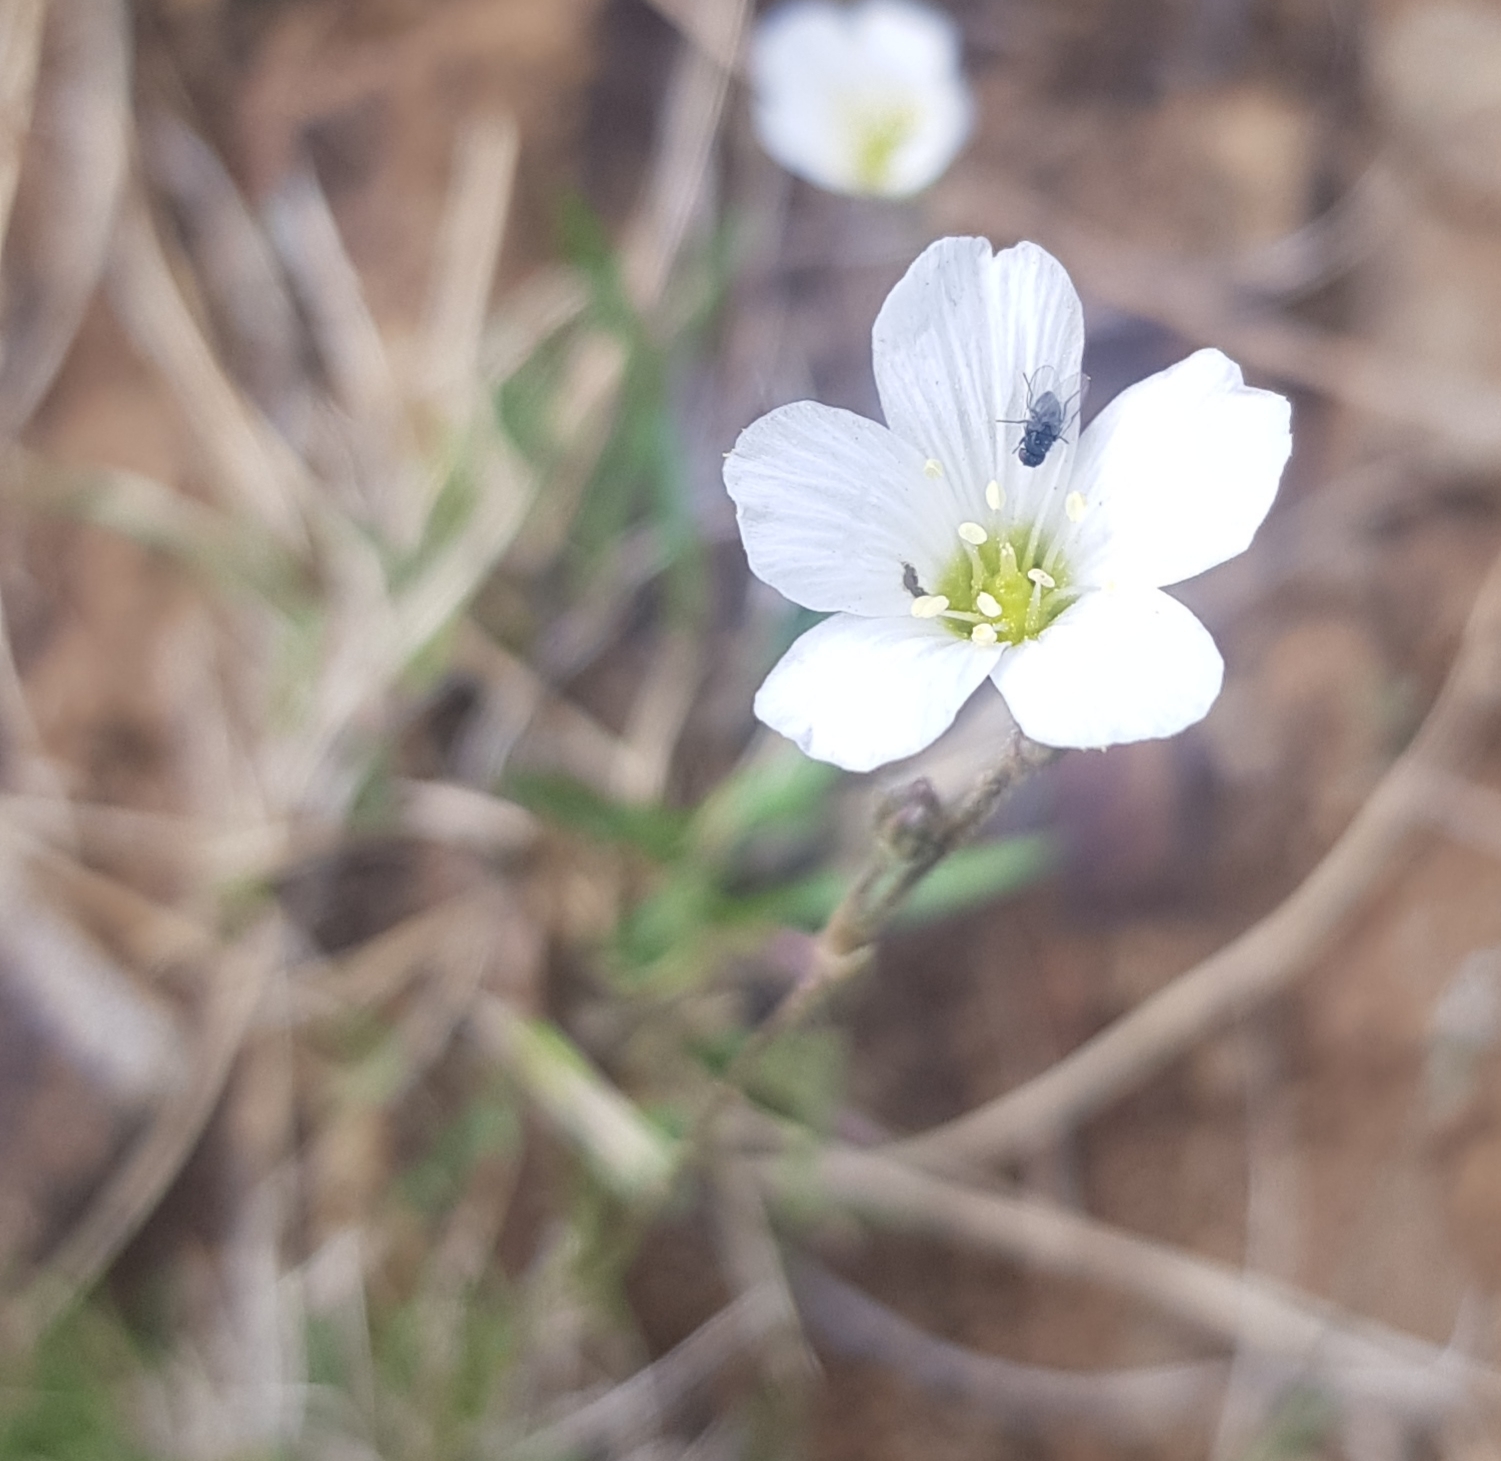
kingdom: Plantae
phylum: Tracheophyta
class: Magnoliopsida
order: Caryophyllales
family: Caryophyllaceae
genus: Eremogone
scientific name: Eremogone capillaris
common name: Slender mountain sandwort
